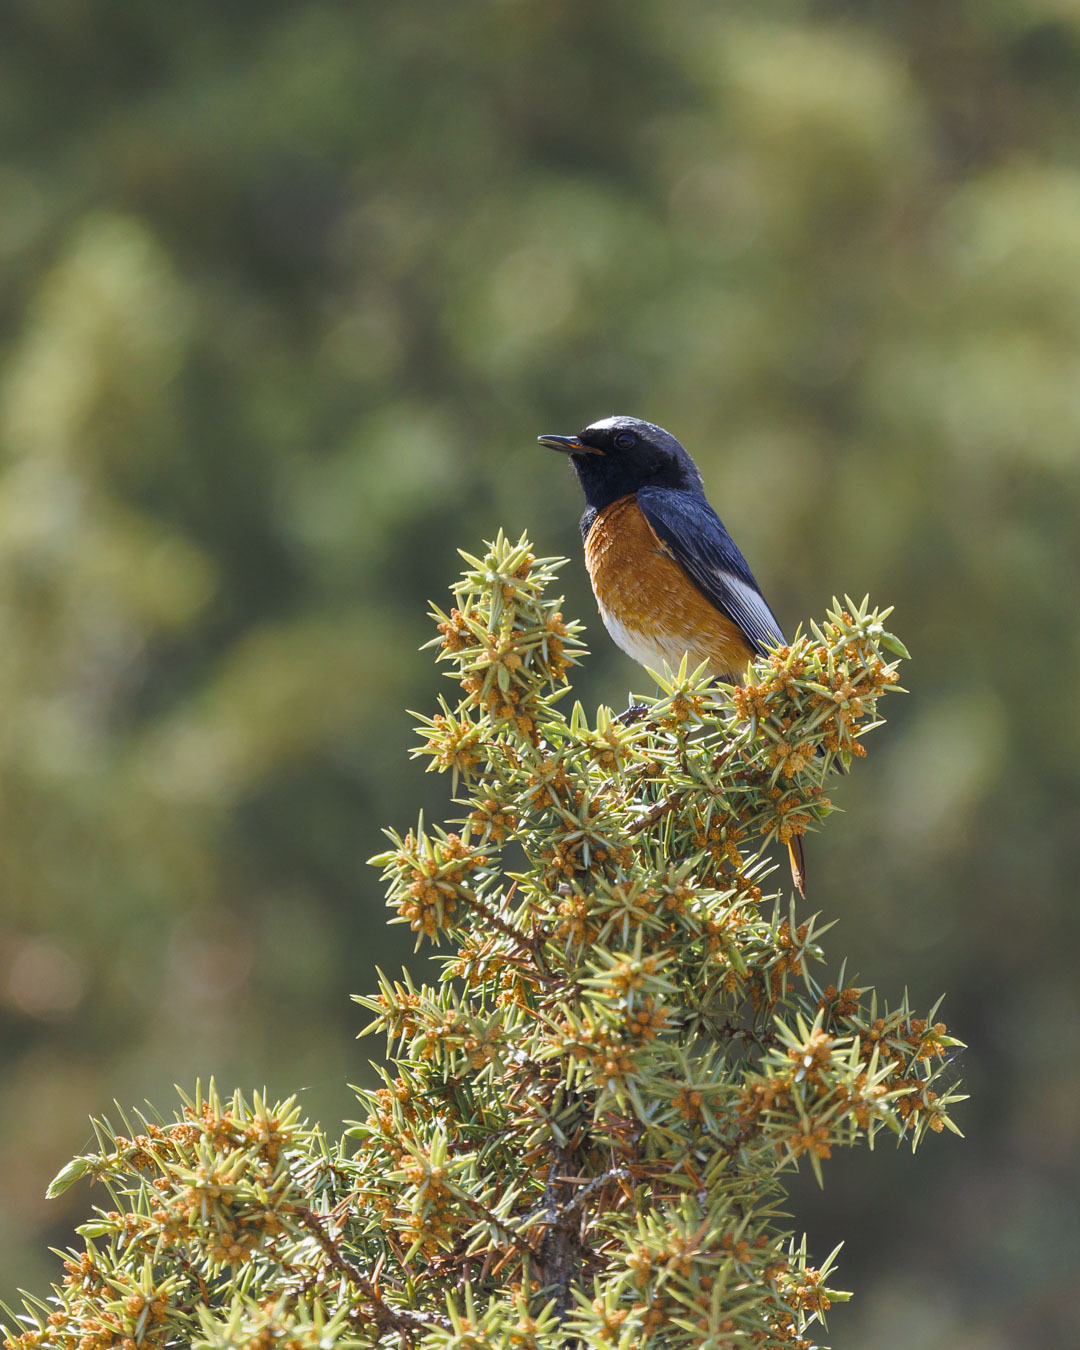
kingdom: Animalia
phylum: Chordata
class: Aves
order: Passeriformes
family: Muscicapidae
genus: Phoenicurus
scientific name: Phoenicurus phoenicurus
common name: Common redstart
